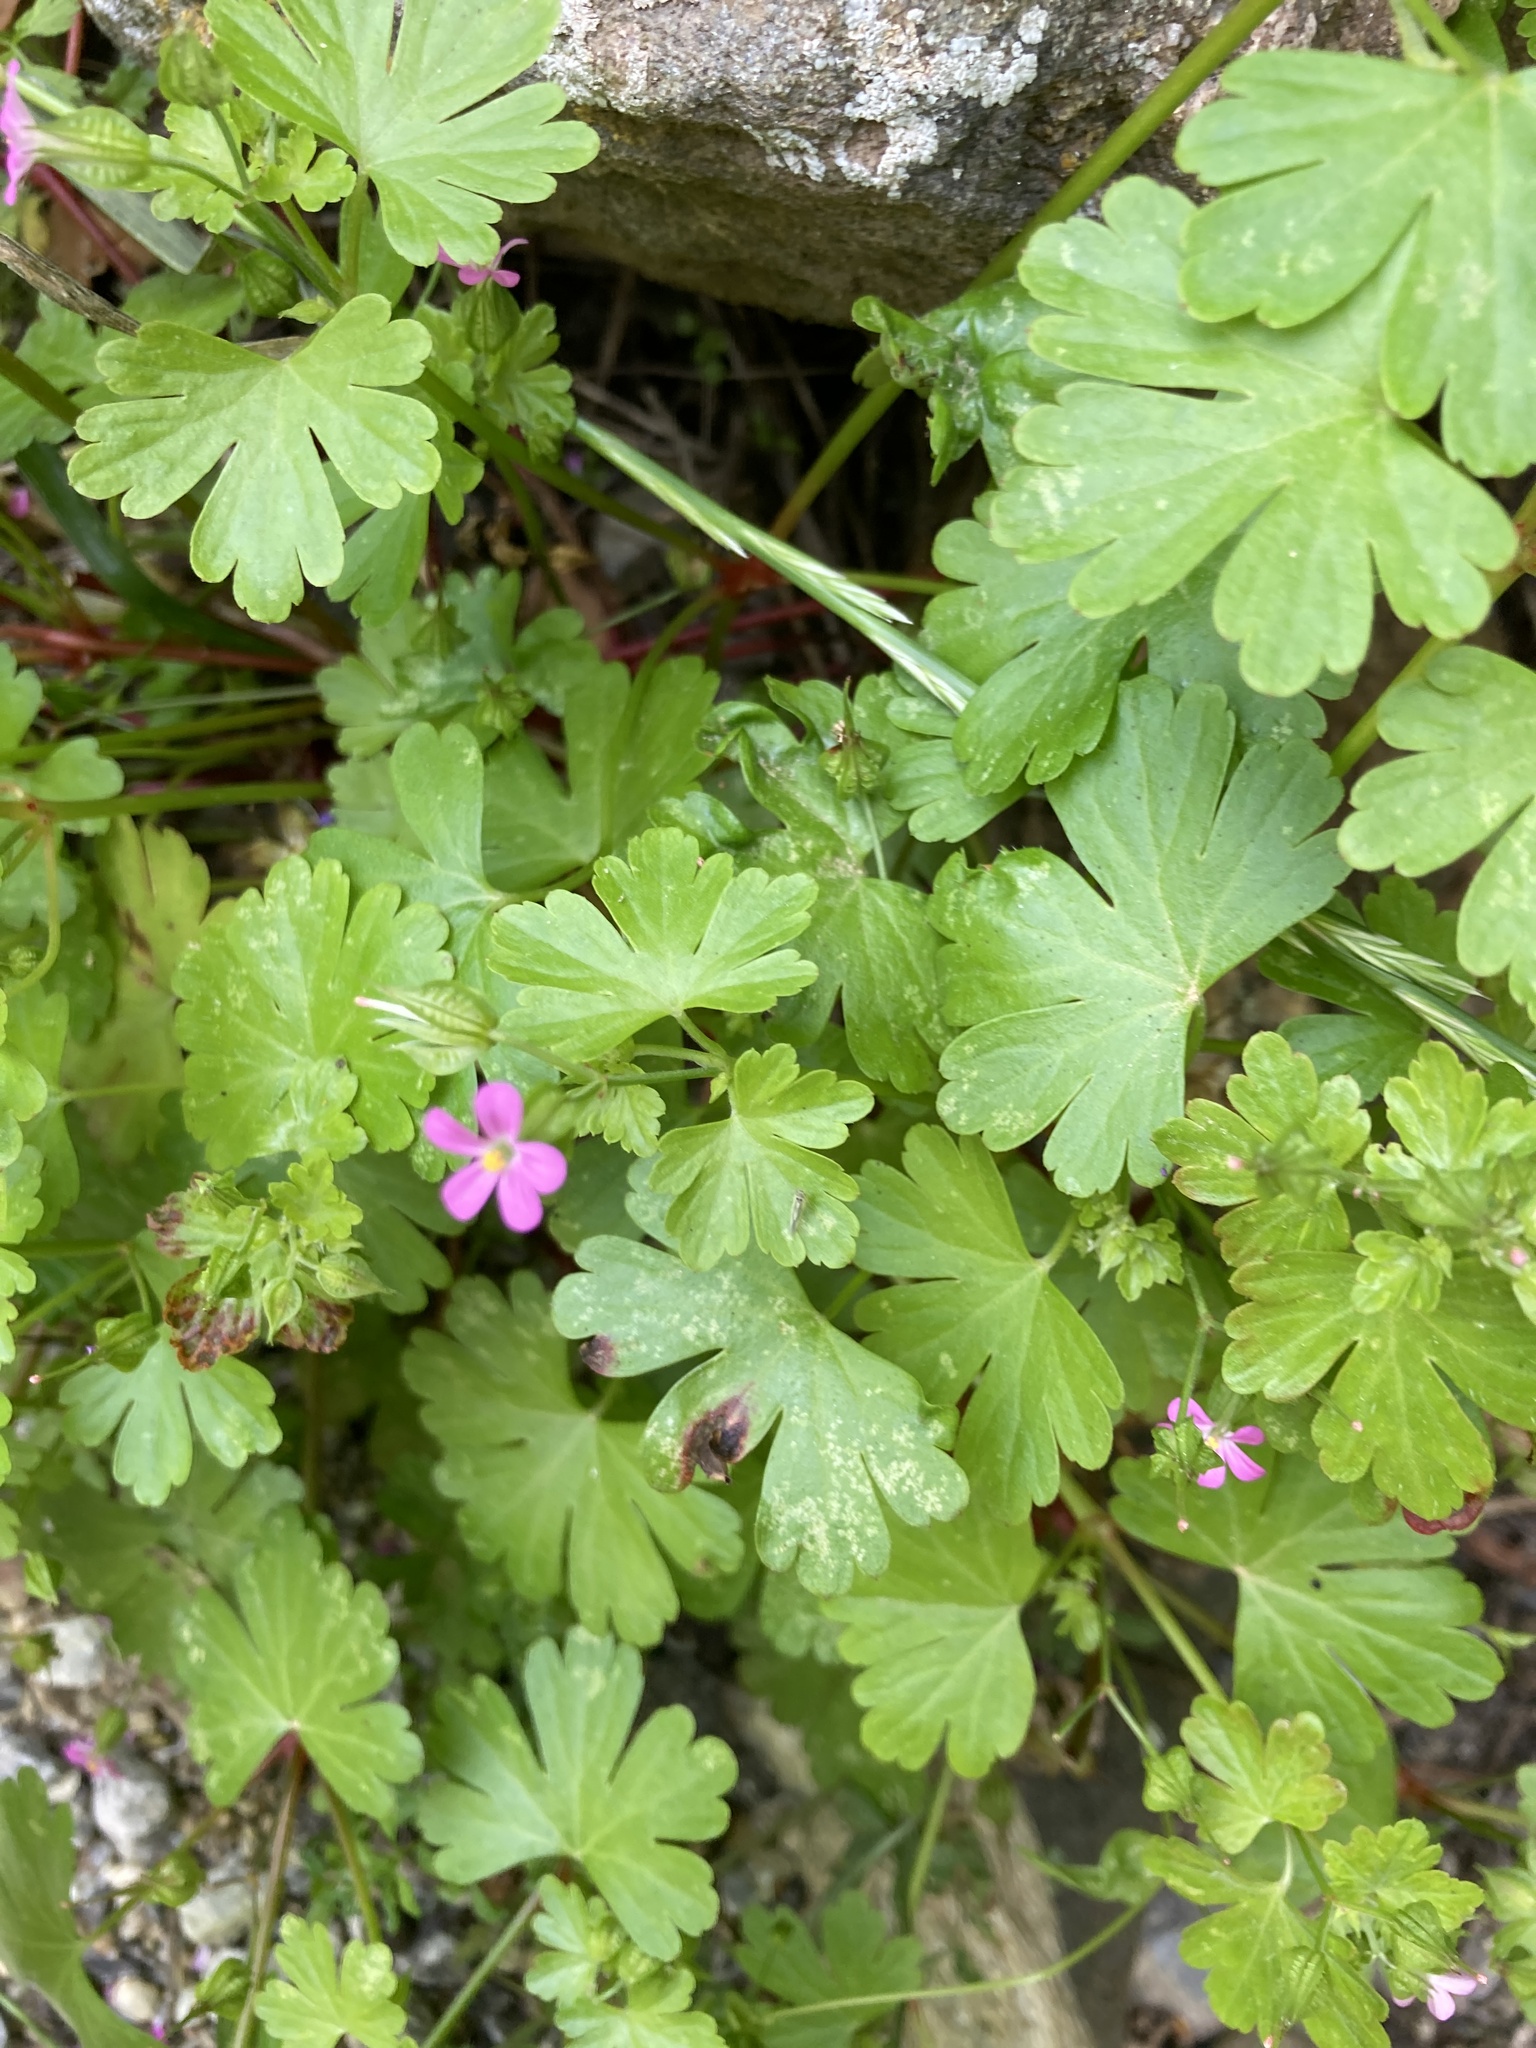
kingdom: Plantae
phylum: Tracheophyta
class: Magnoliopsida
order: Geraniales
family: Geraniaceae
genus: Geranium
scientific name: Geranium lucidum
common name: Shining crane's-bill
